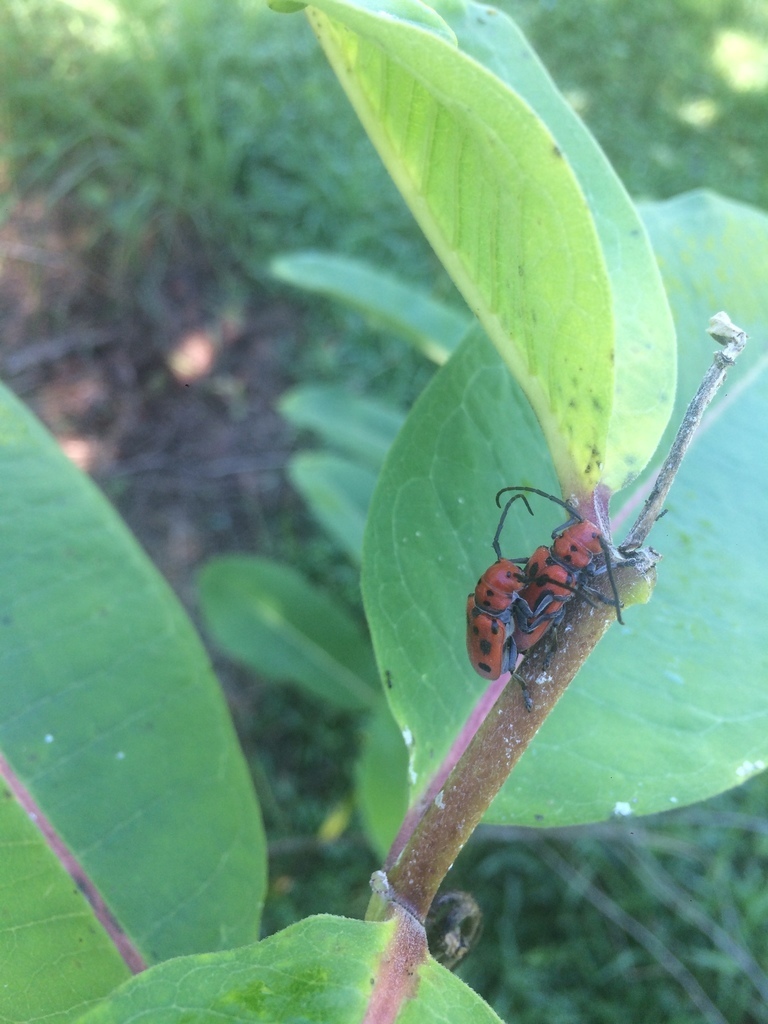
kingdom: Animalia
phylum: Arthropoda
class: Insecta
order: Coleoptera
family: Cerambycidae
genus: Tetraopes
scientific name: Tetraopes tetrophthalmus
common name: Red milkweed beetle
